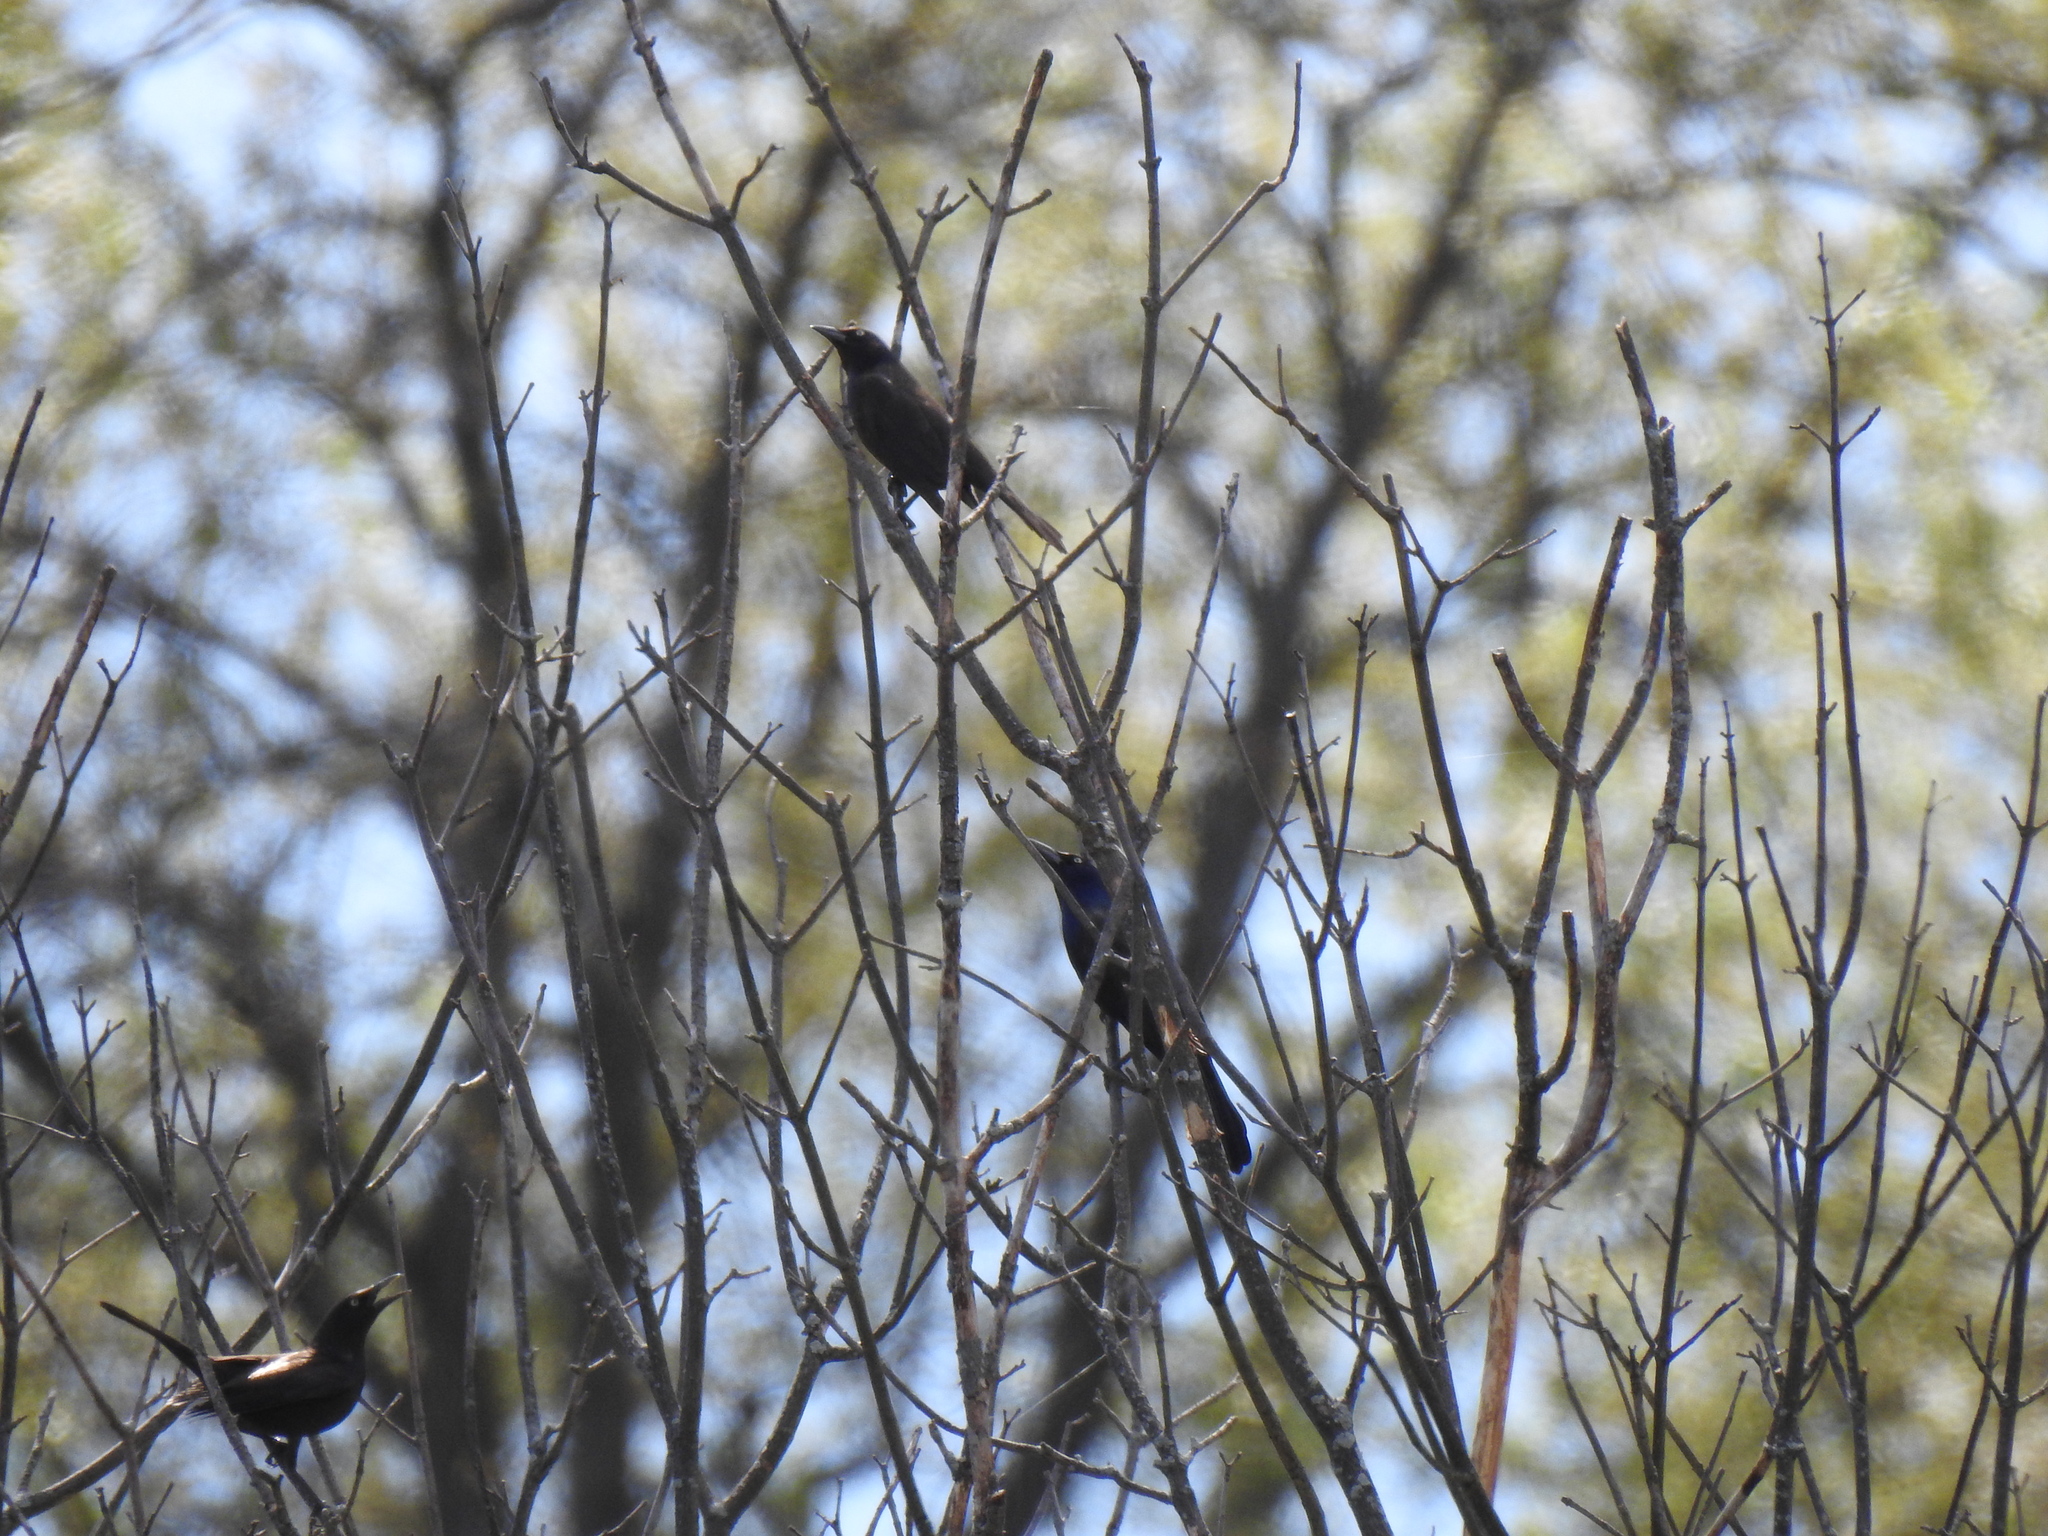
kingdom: Animalia
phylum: Chordata
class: Aves
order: Passeriformes
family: Icteridae
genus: Quiscalus
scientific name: Quiscalus quiscula
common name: Common grackle
